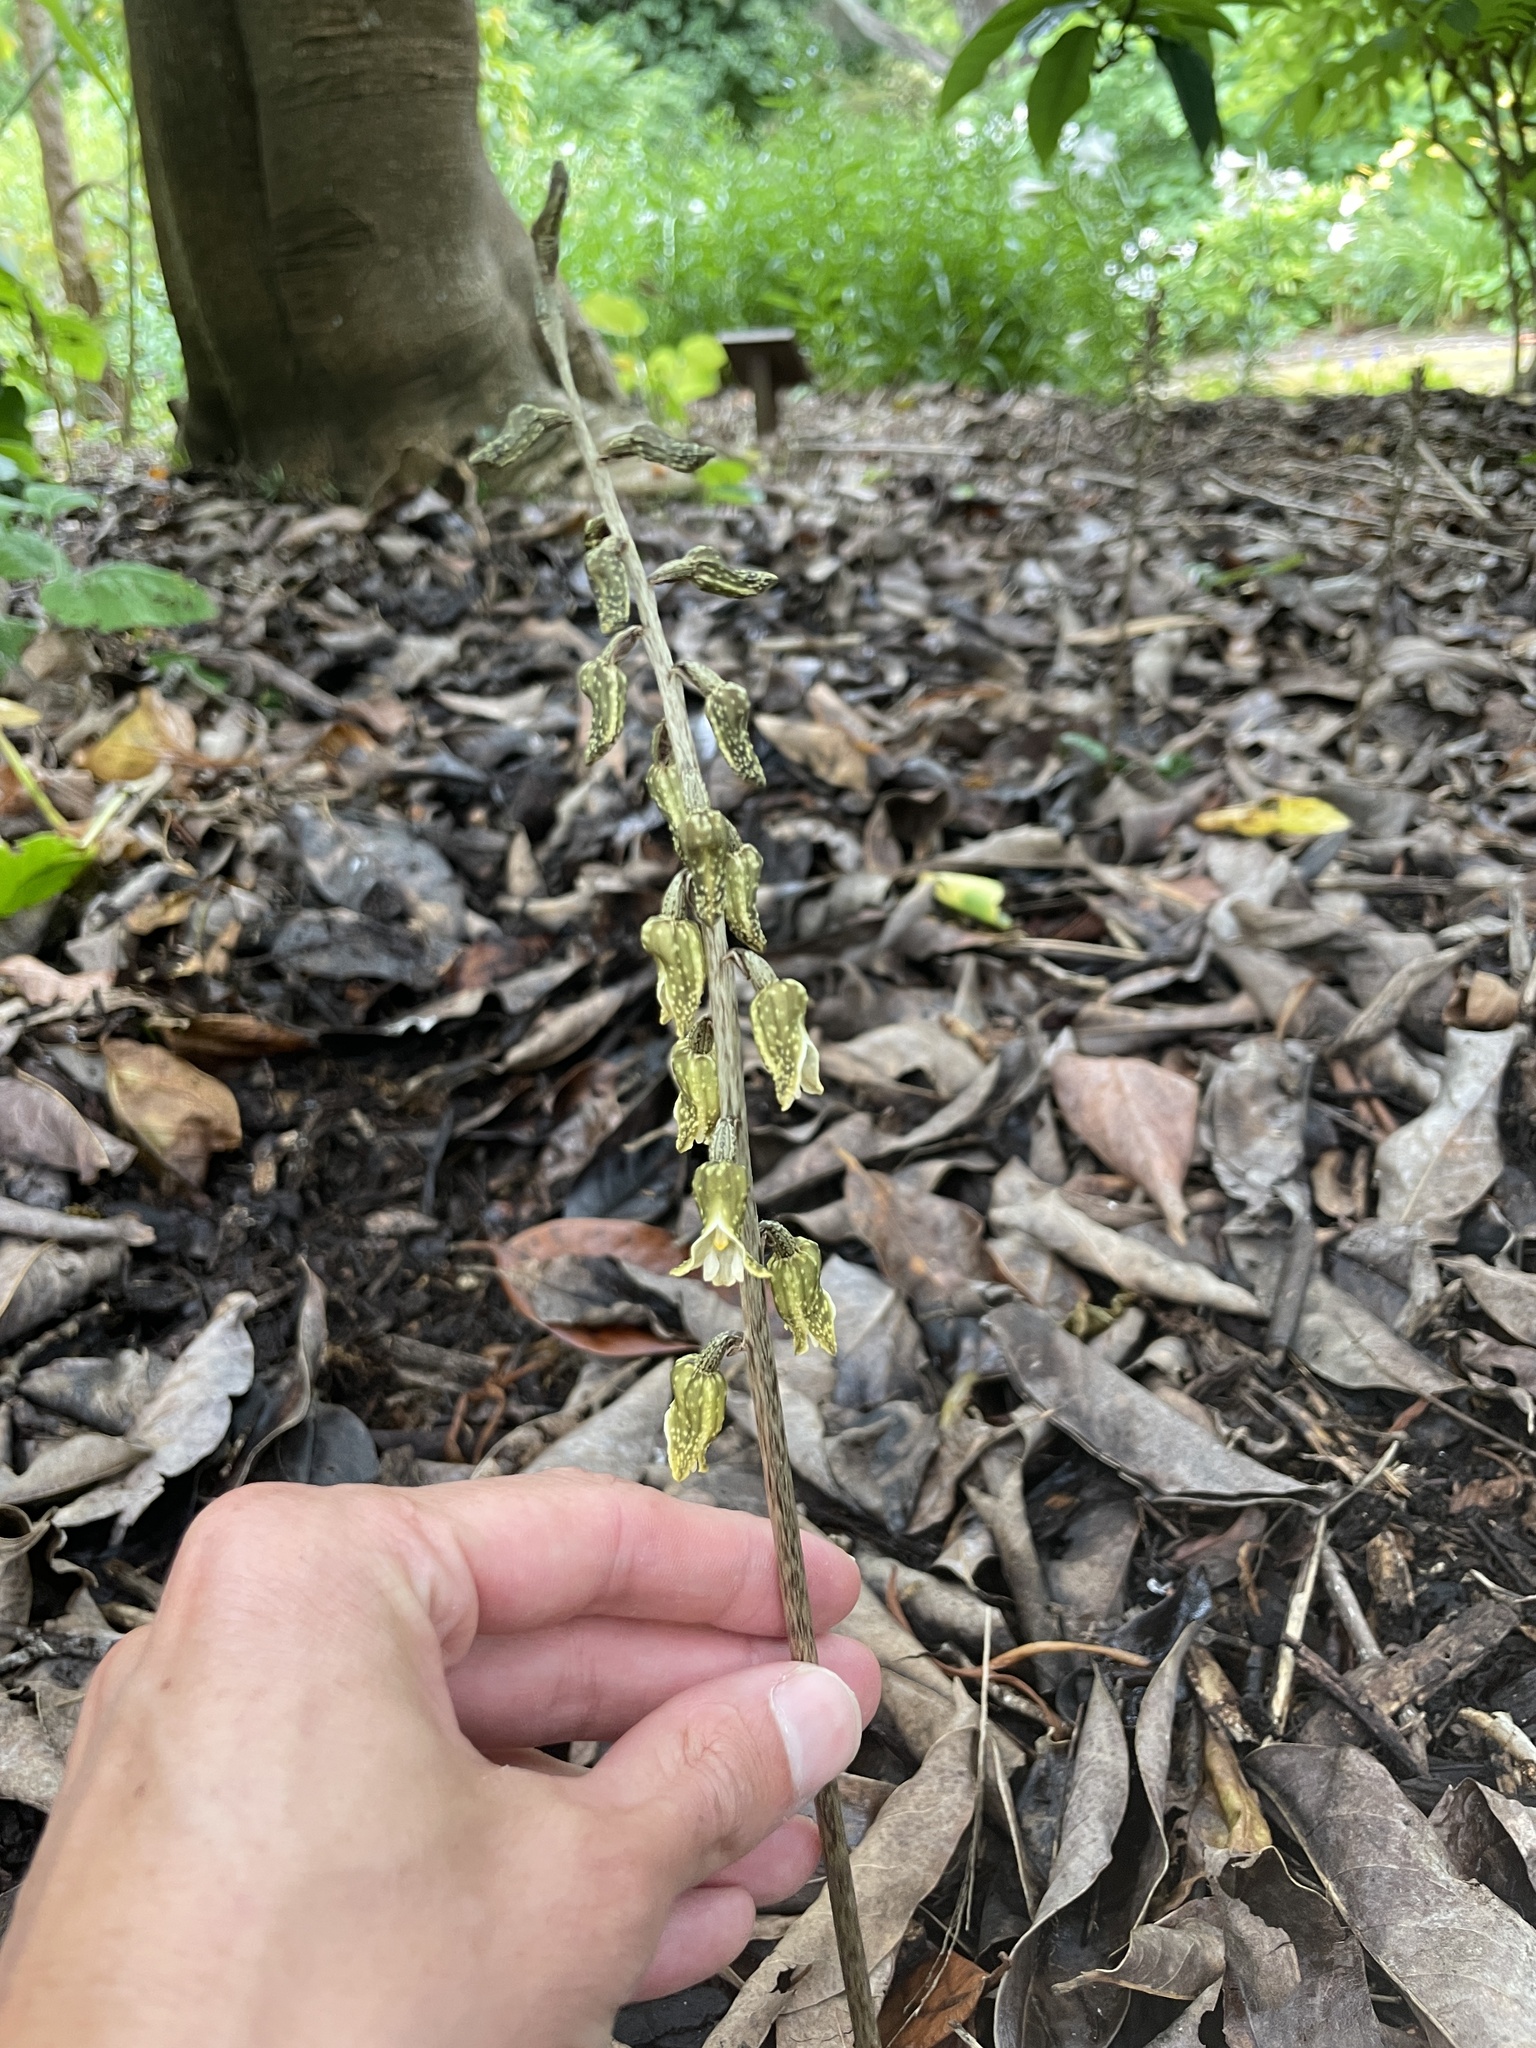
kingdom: Plantae
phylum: Tracheophyta
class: Liliopsida
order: Asparagales
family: Orchidaceae
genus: Gastrodia
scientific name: Gastrodia molloyi
